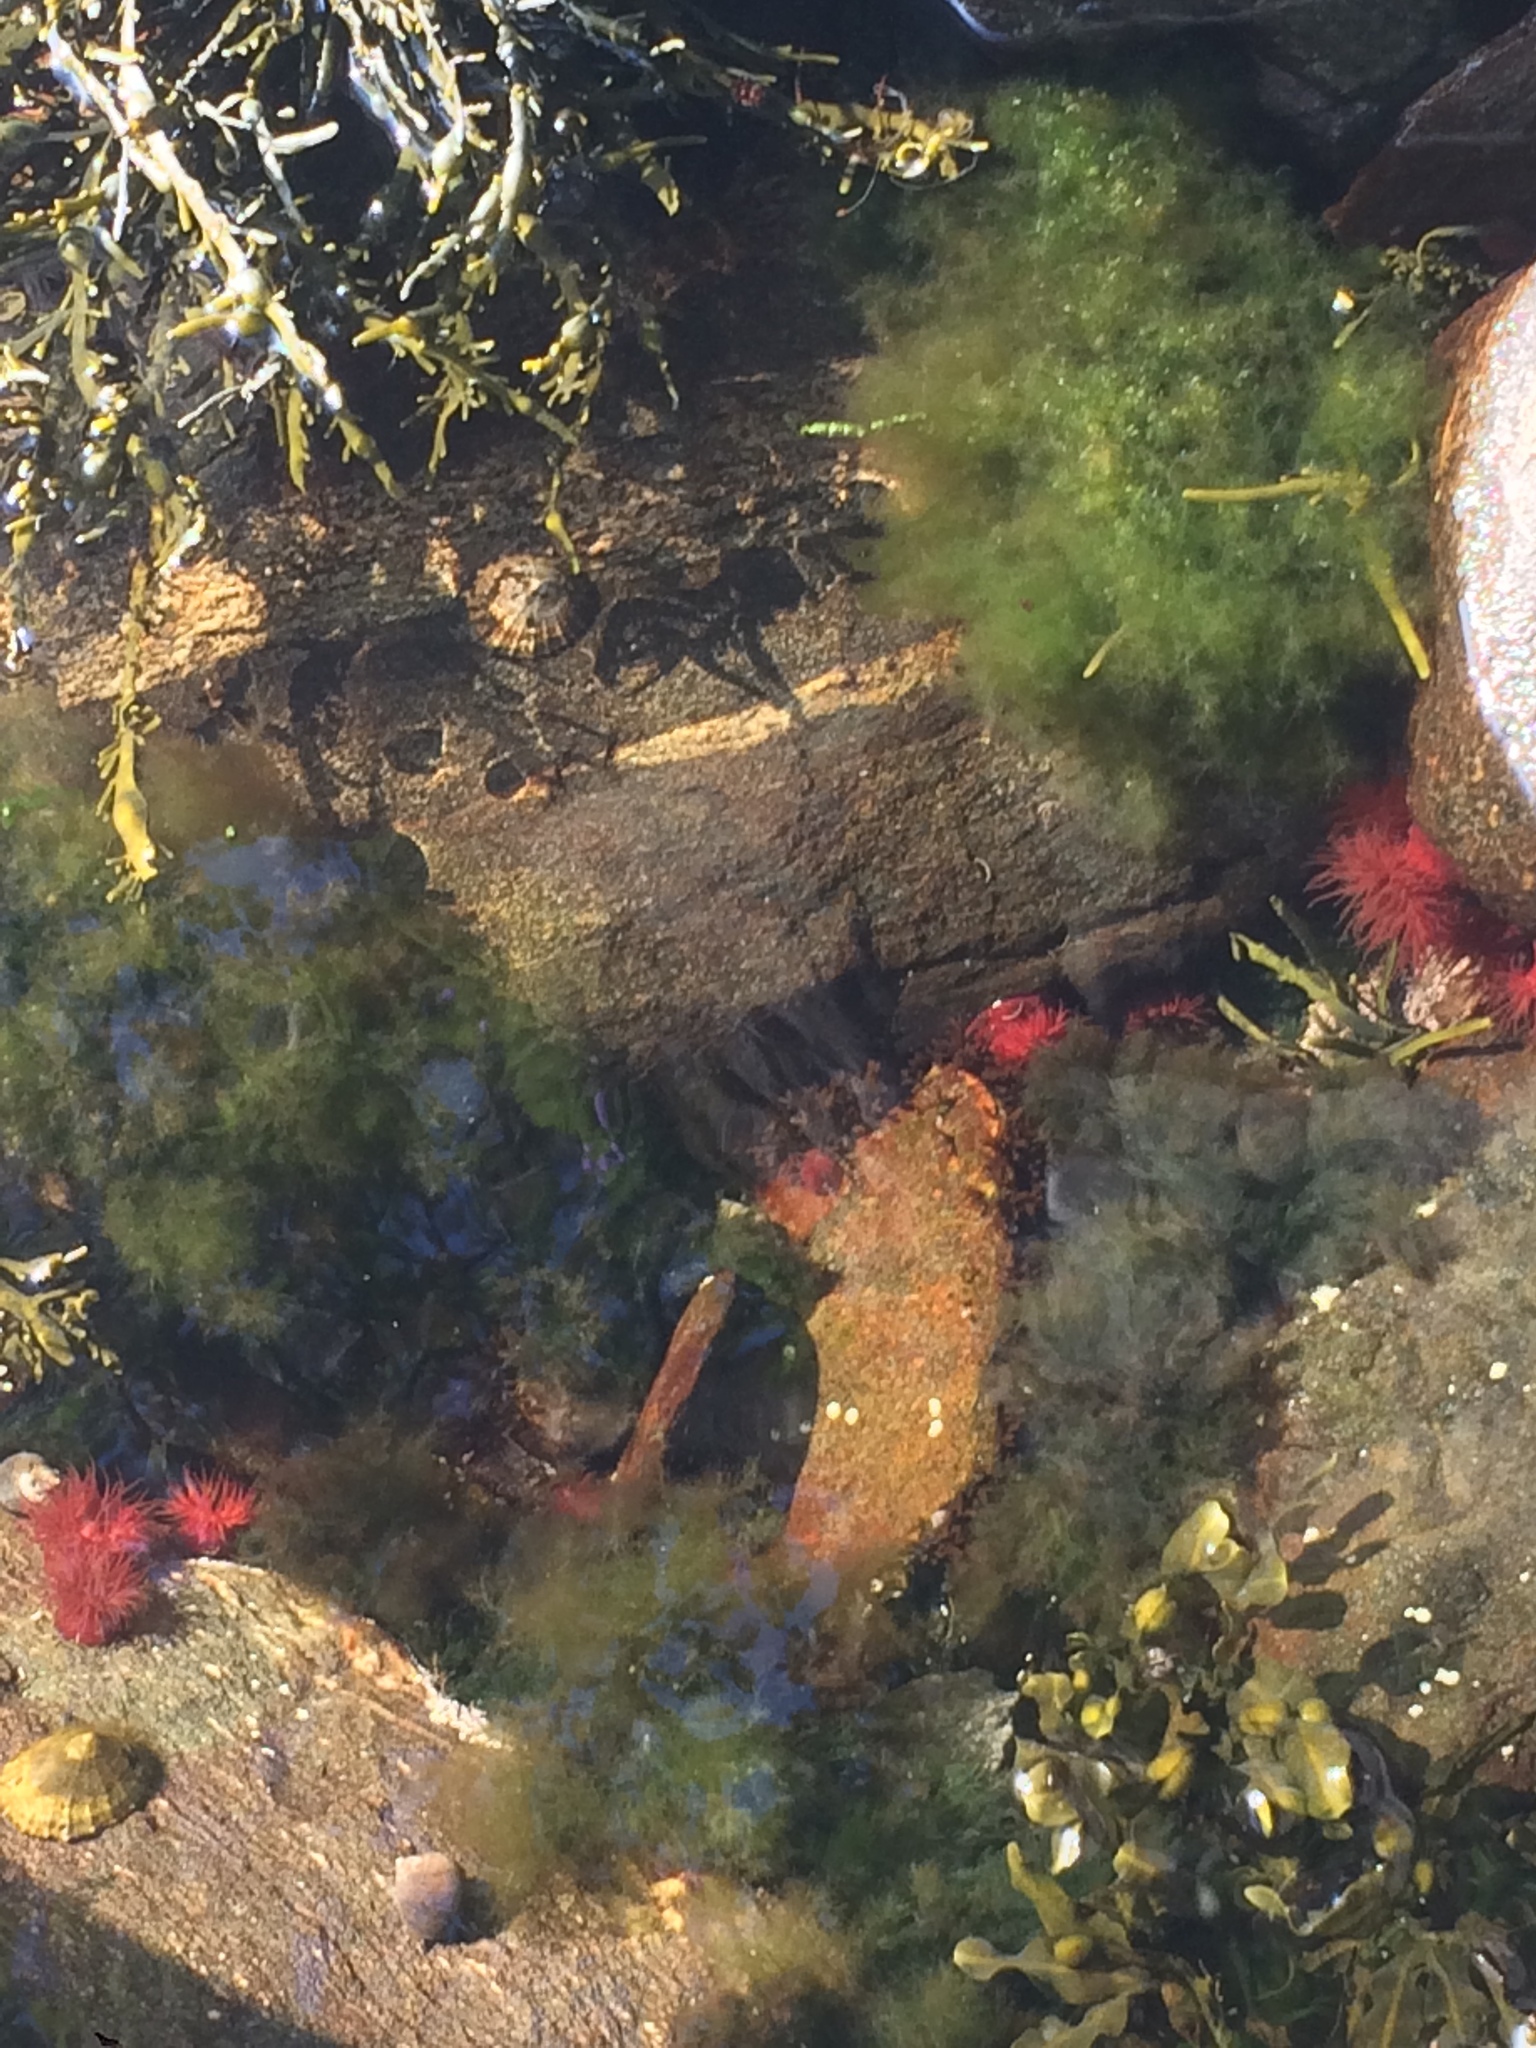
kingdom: Animalia
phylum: Cnidaria
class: Anthozoa
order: Actiniaria
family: Actiniidae
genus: Actinia
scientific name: Actinia equina
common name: Beadlet anemone
